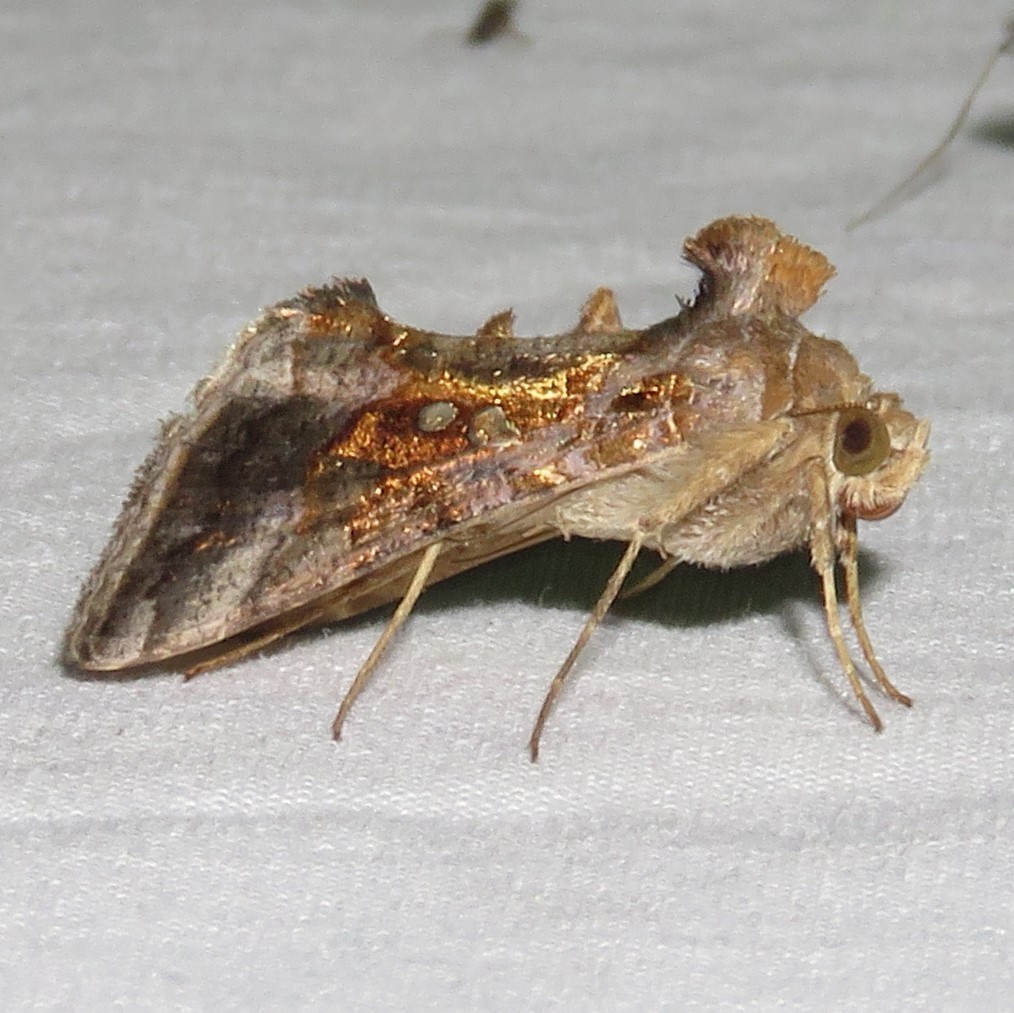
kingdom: Animalia
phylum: Arthropoda
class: Insecta
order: Lepidoptera
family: Noctuidae
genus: Chrysodeixis
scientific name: Chrysodeixis includens
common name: Cutworm moth
